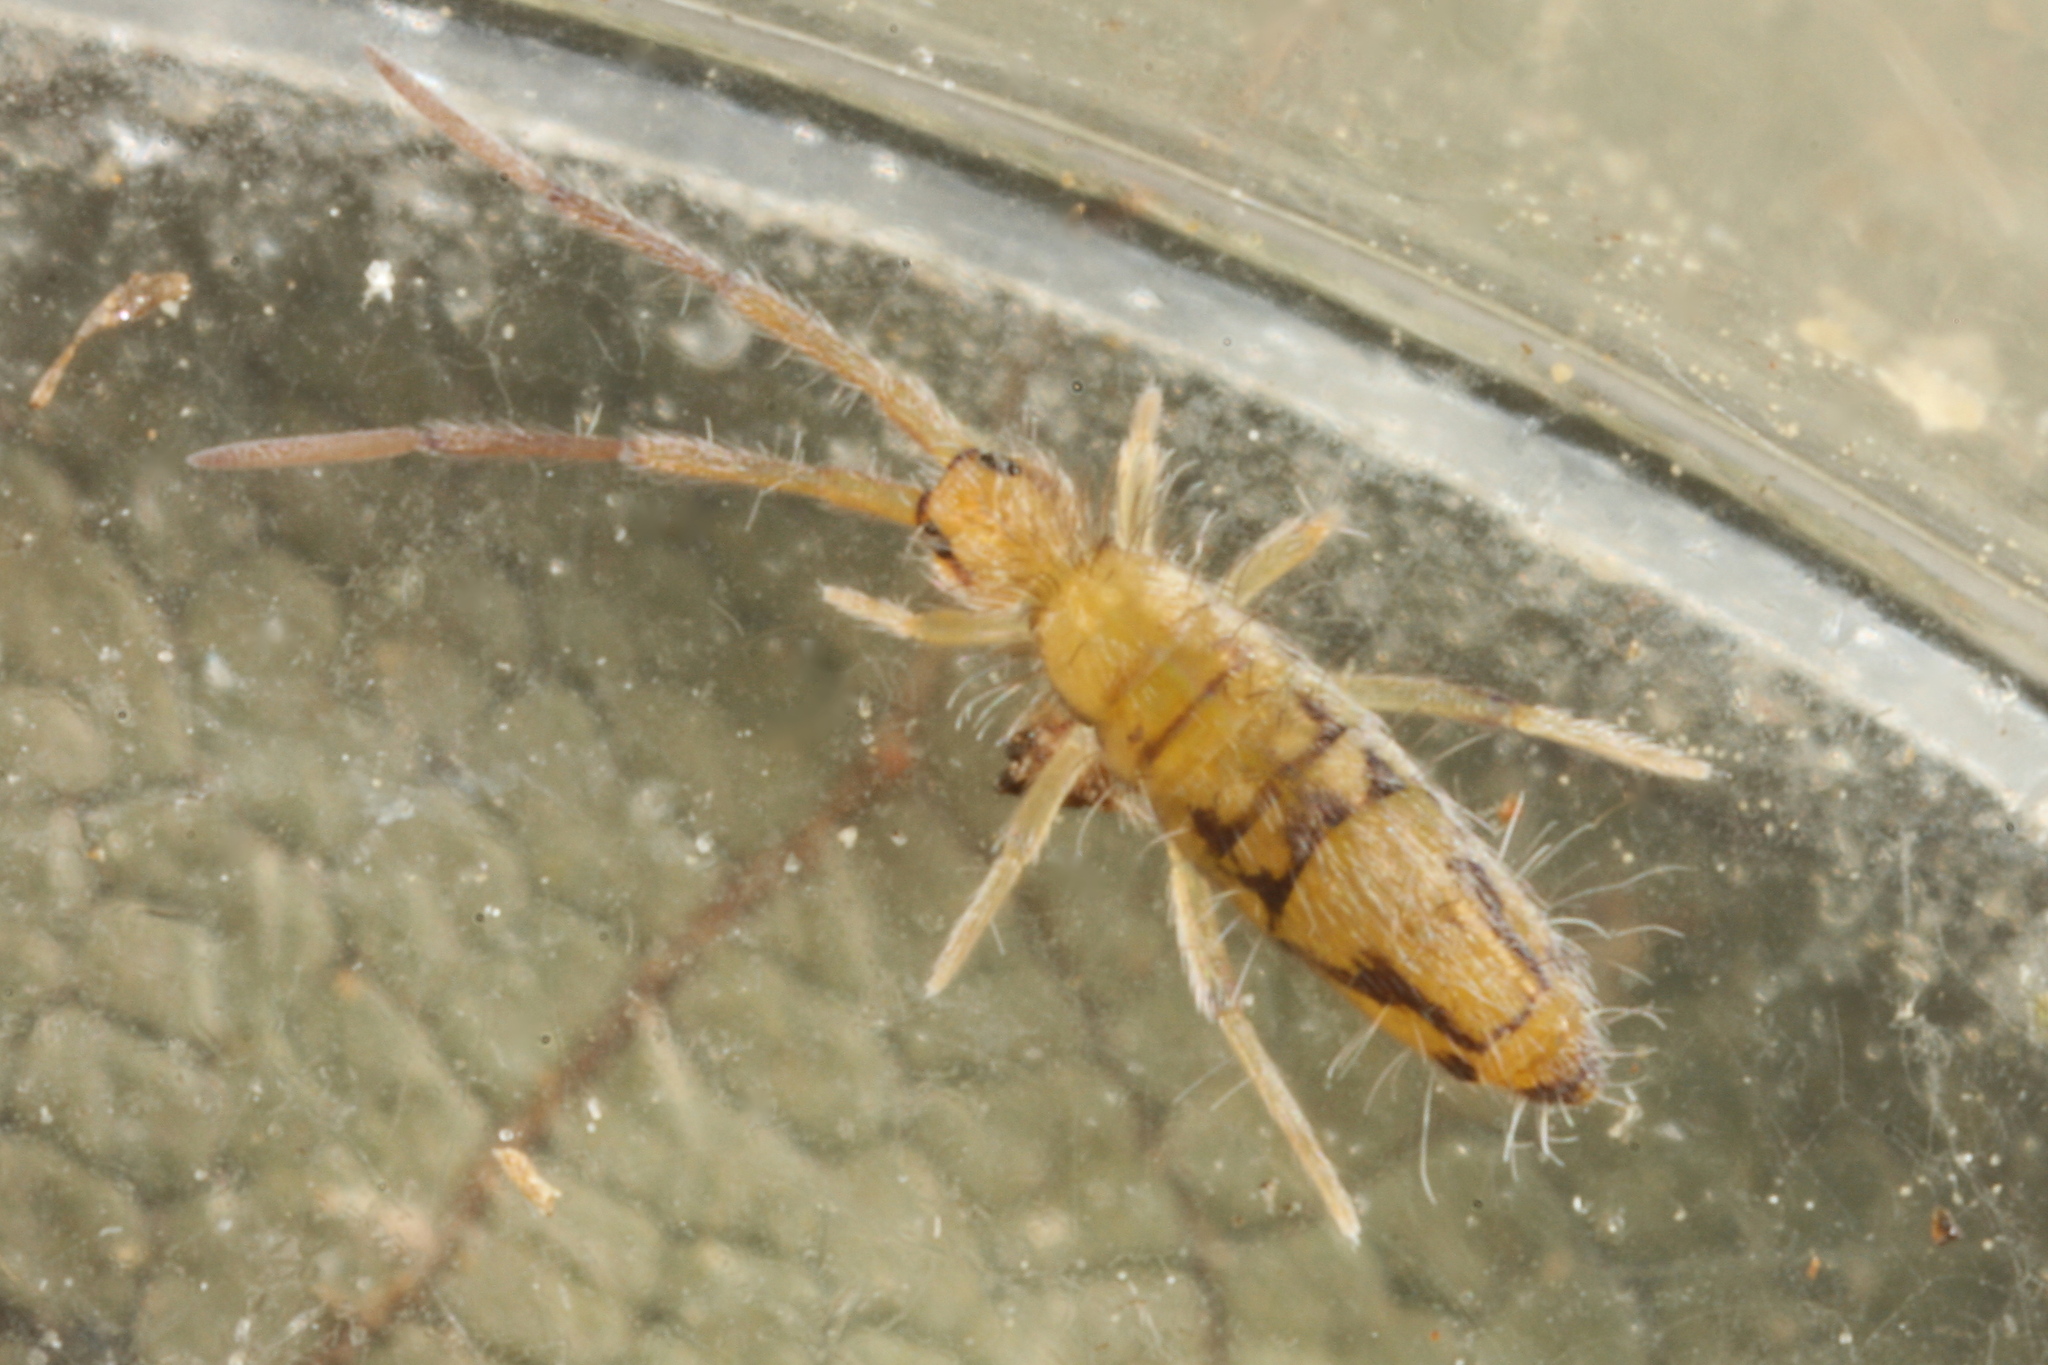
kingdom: Animalia
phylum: Arthropoda
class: Collembola
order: Entomobryomorpha
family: Entomobryidae
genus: Entomobrya
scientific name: Entomobrya nivalis
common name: Cosmopolitan springtail
